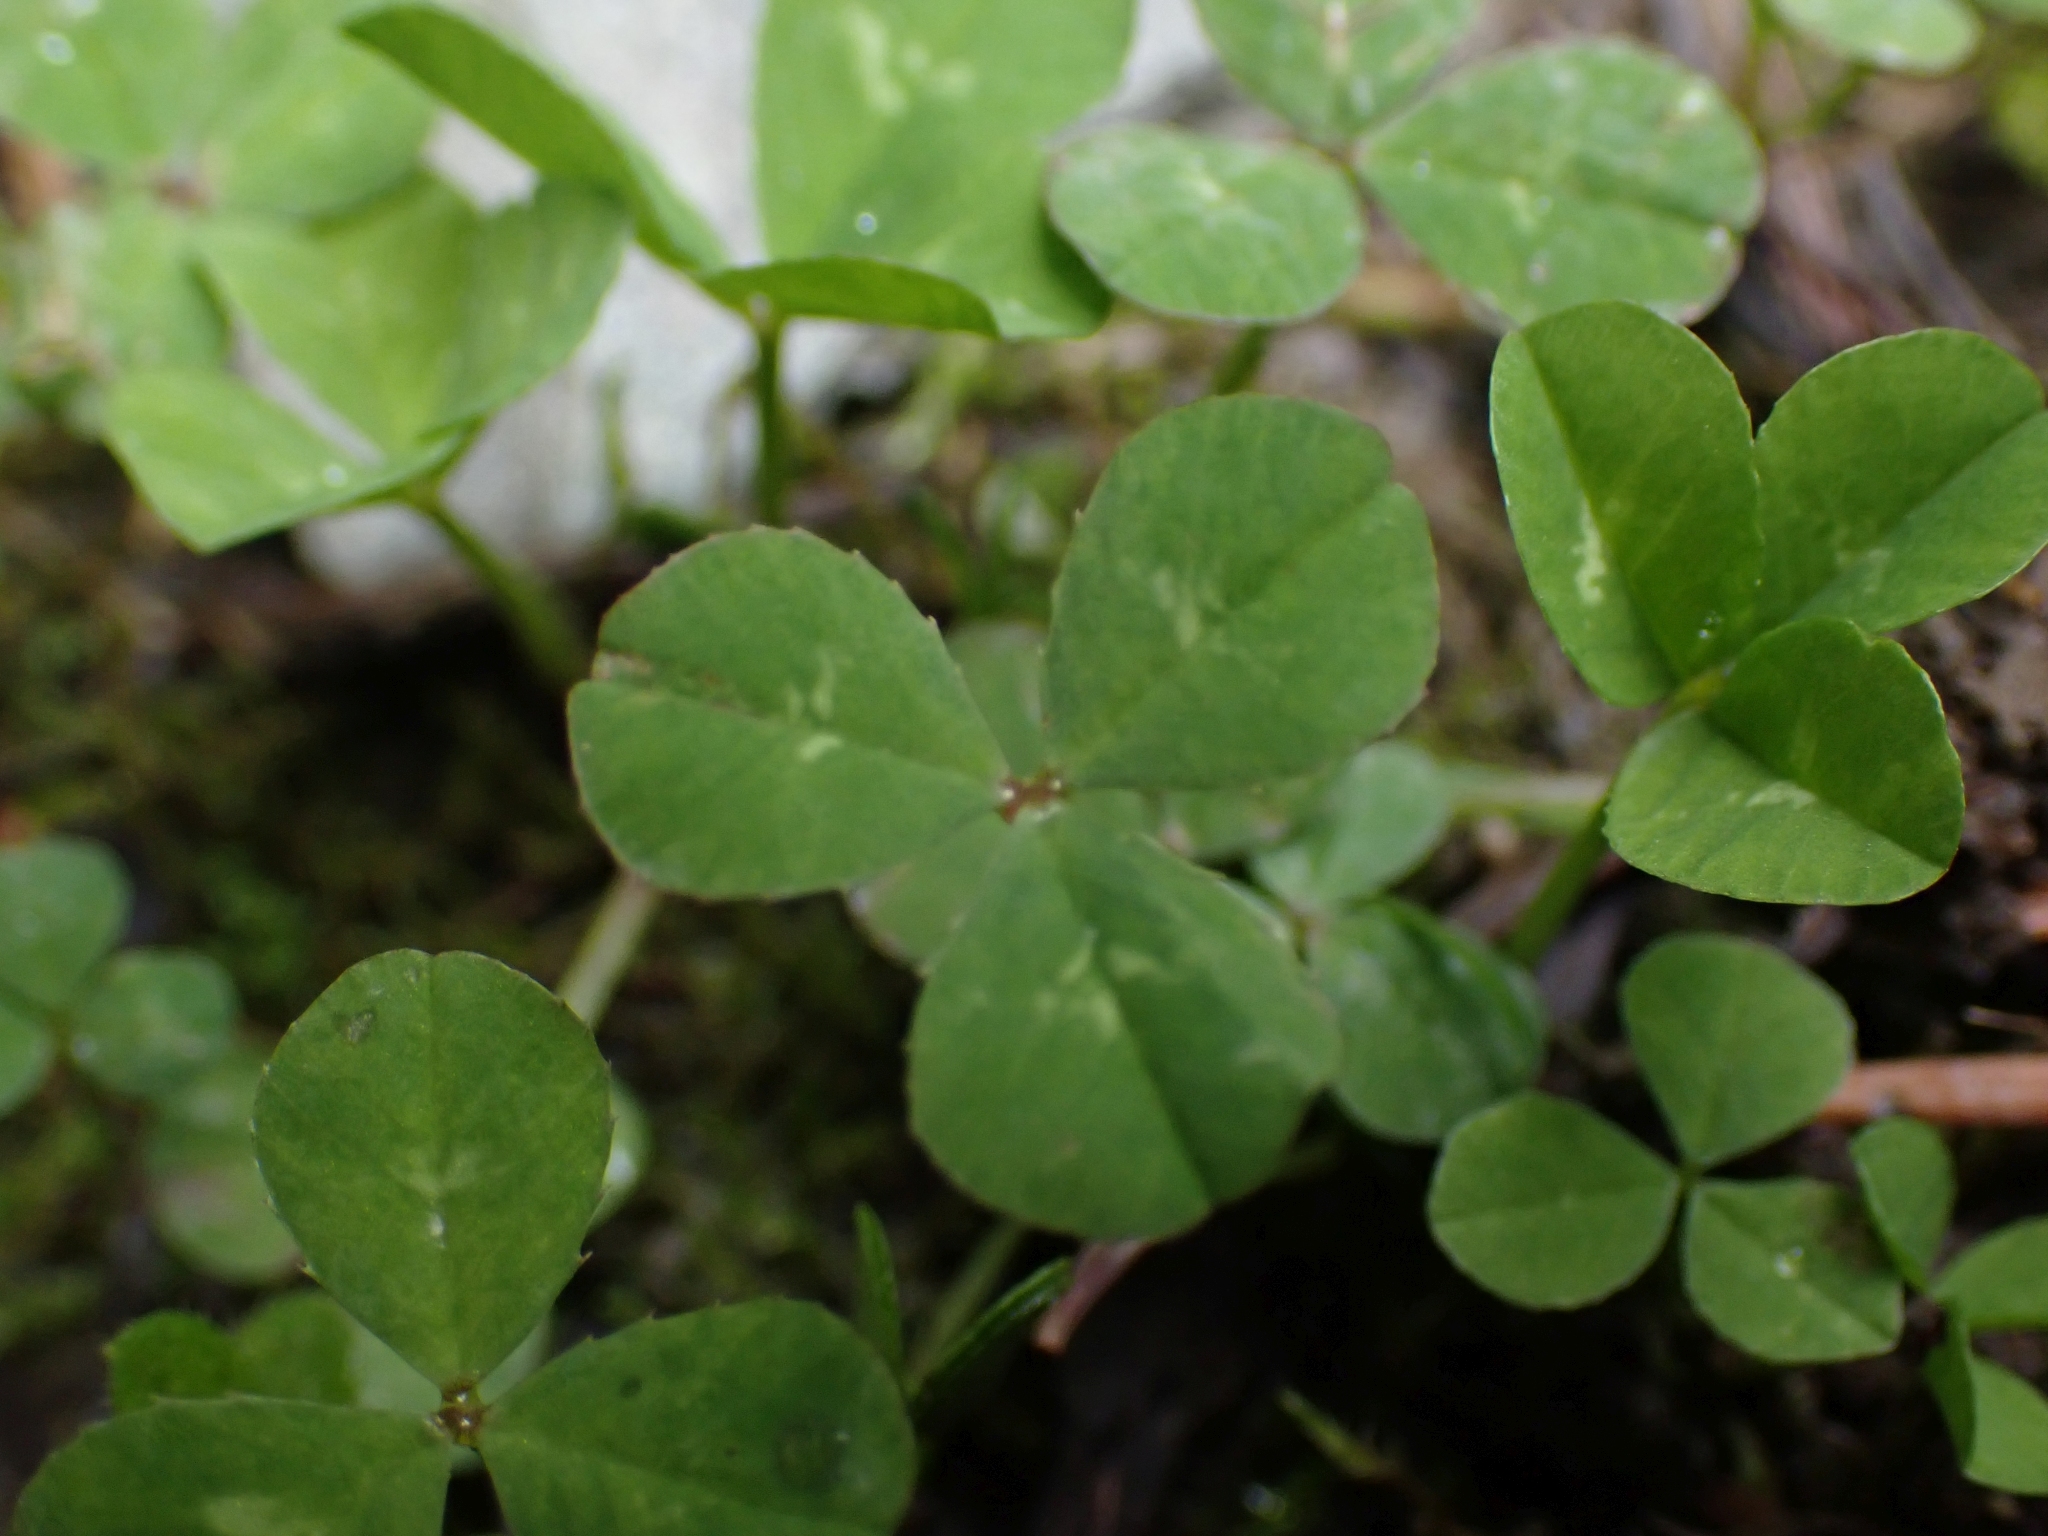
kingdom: Plantae
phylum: Tracheophyta
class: Magnoliopsida
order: Fabales
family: Fabaceae
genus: Trifolium
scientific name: Trifolium repens
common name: White clover
